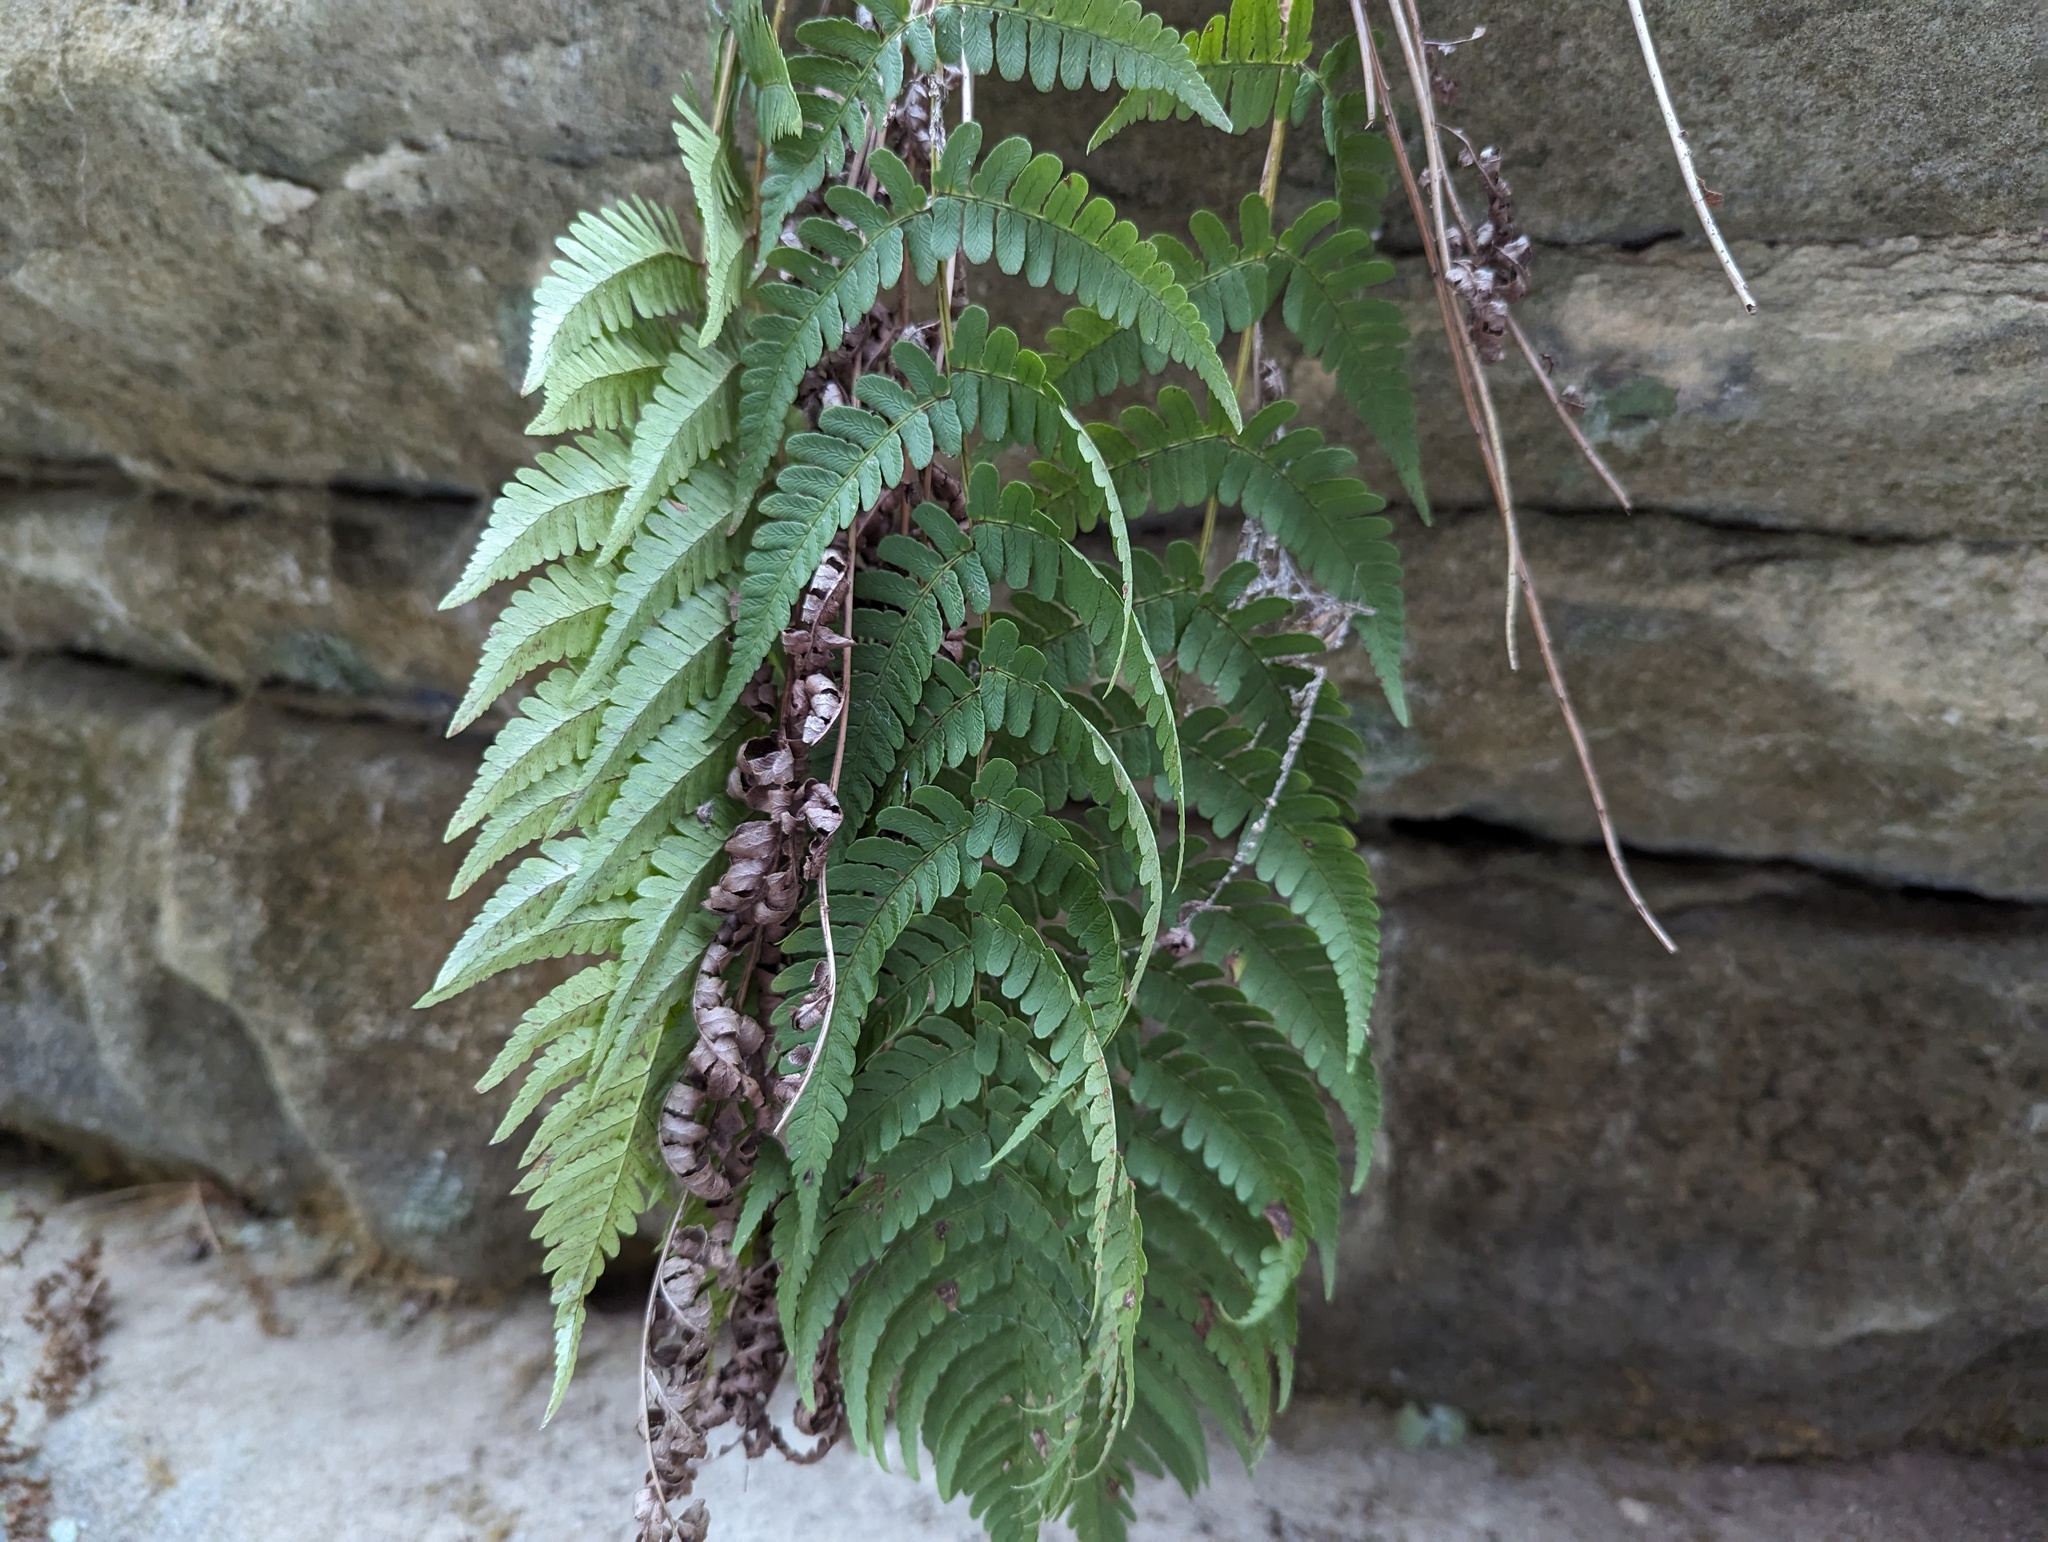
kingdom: Plantae
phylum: Tracheophyta
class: Polypodiopsida
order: Polypodiales
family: Dryopteridaceae
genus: Dryopteris
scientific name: Dryopteris marginalis
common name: Marginal wood fern
